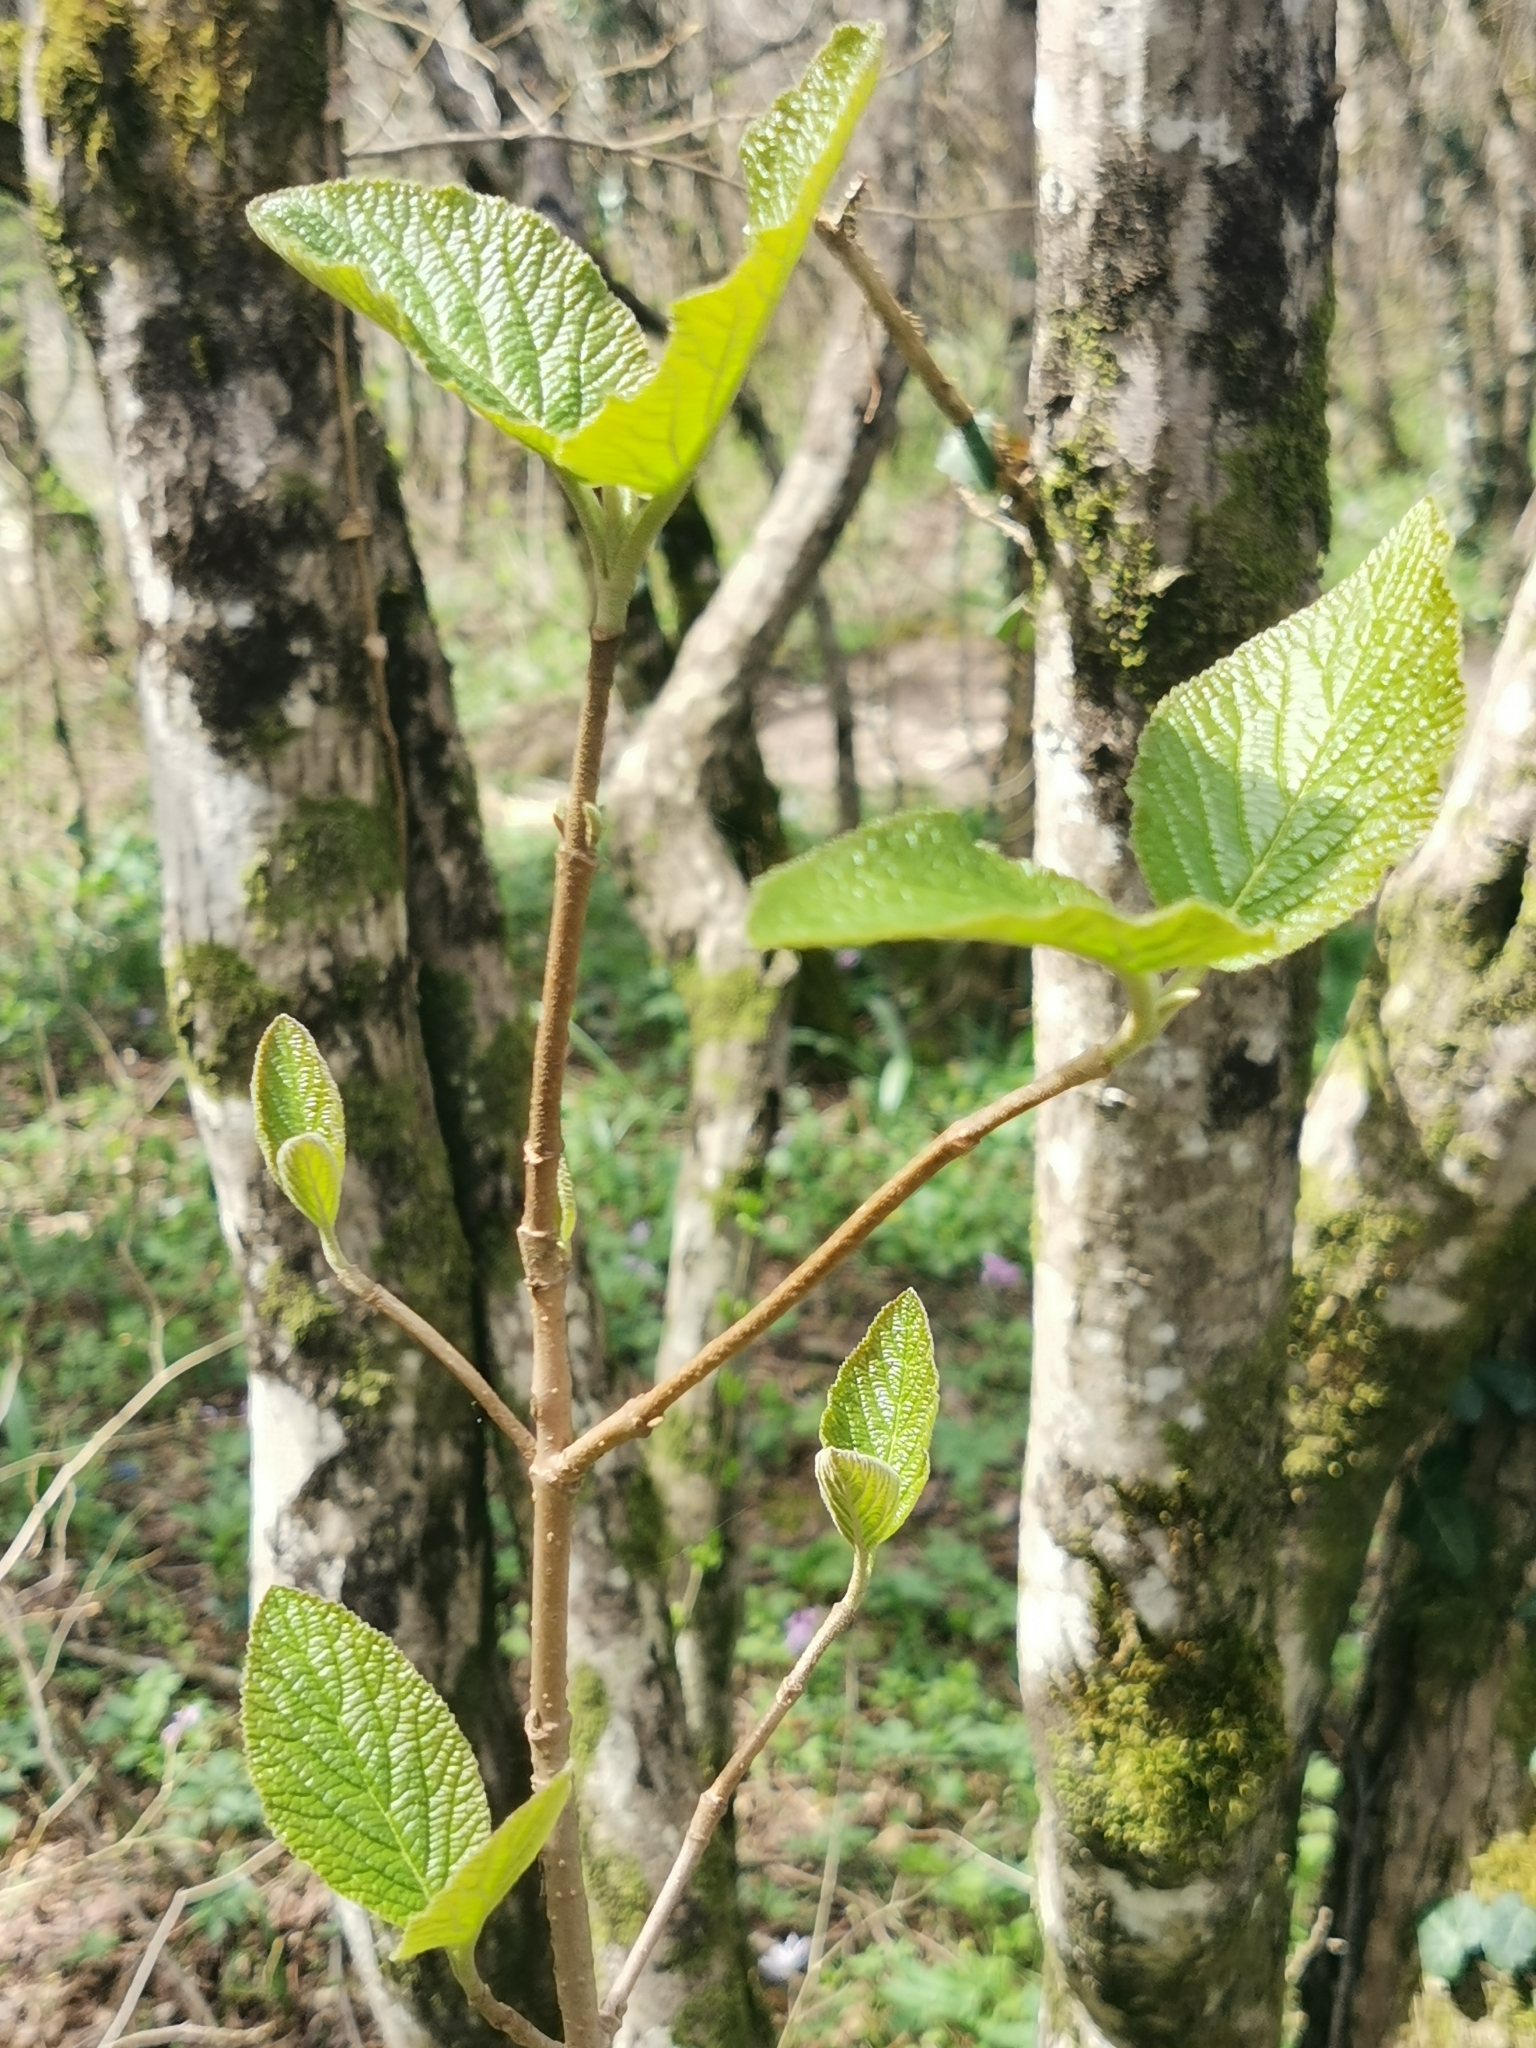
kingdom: Plantae
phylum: Tracheophyta
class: Magnoliopsida
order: Dipsacales
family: Viburnaceae
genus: Viburnum
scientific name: Viburnum lantana
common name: Wayfaring tree
